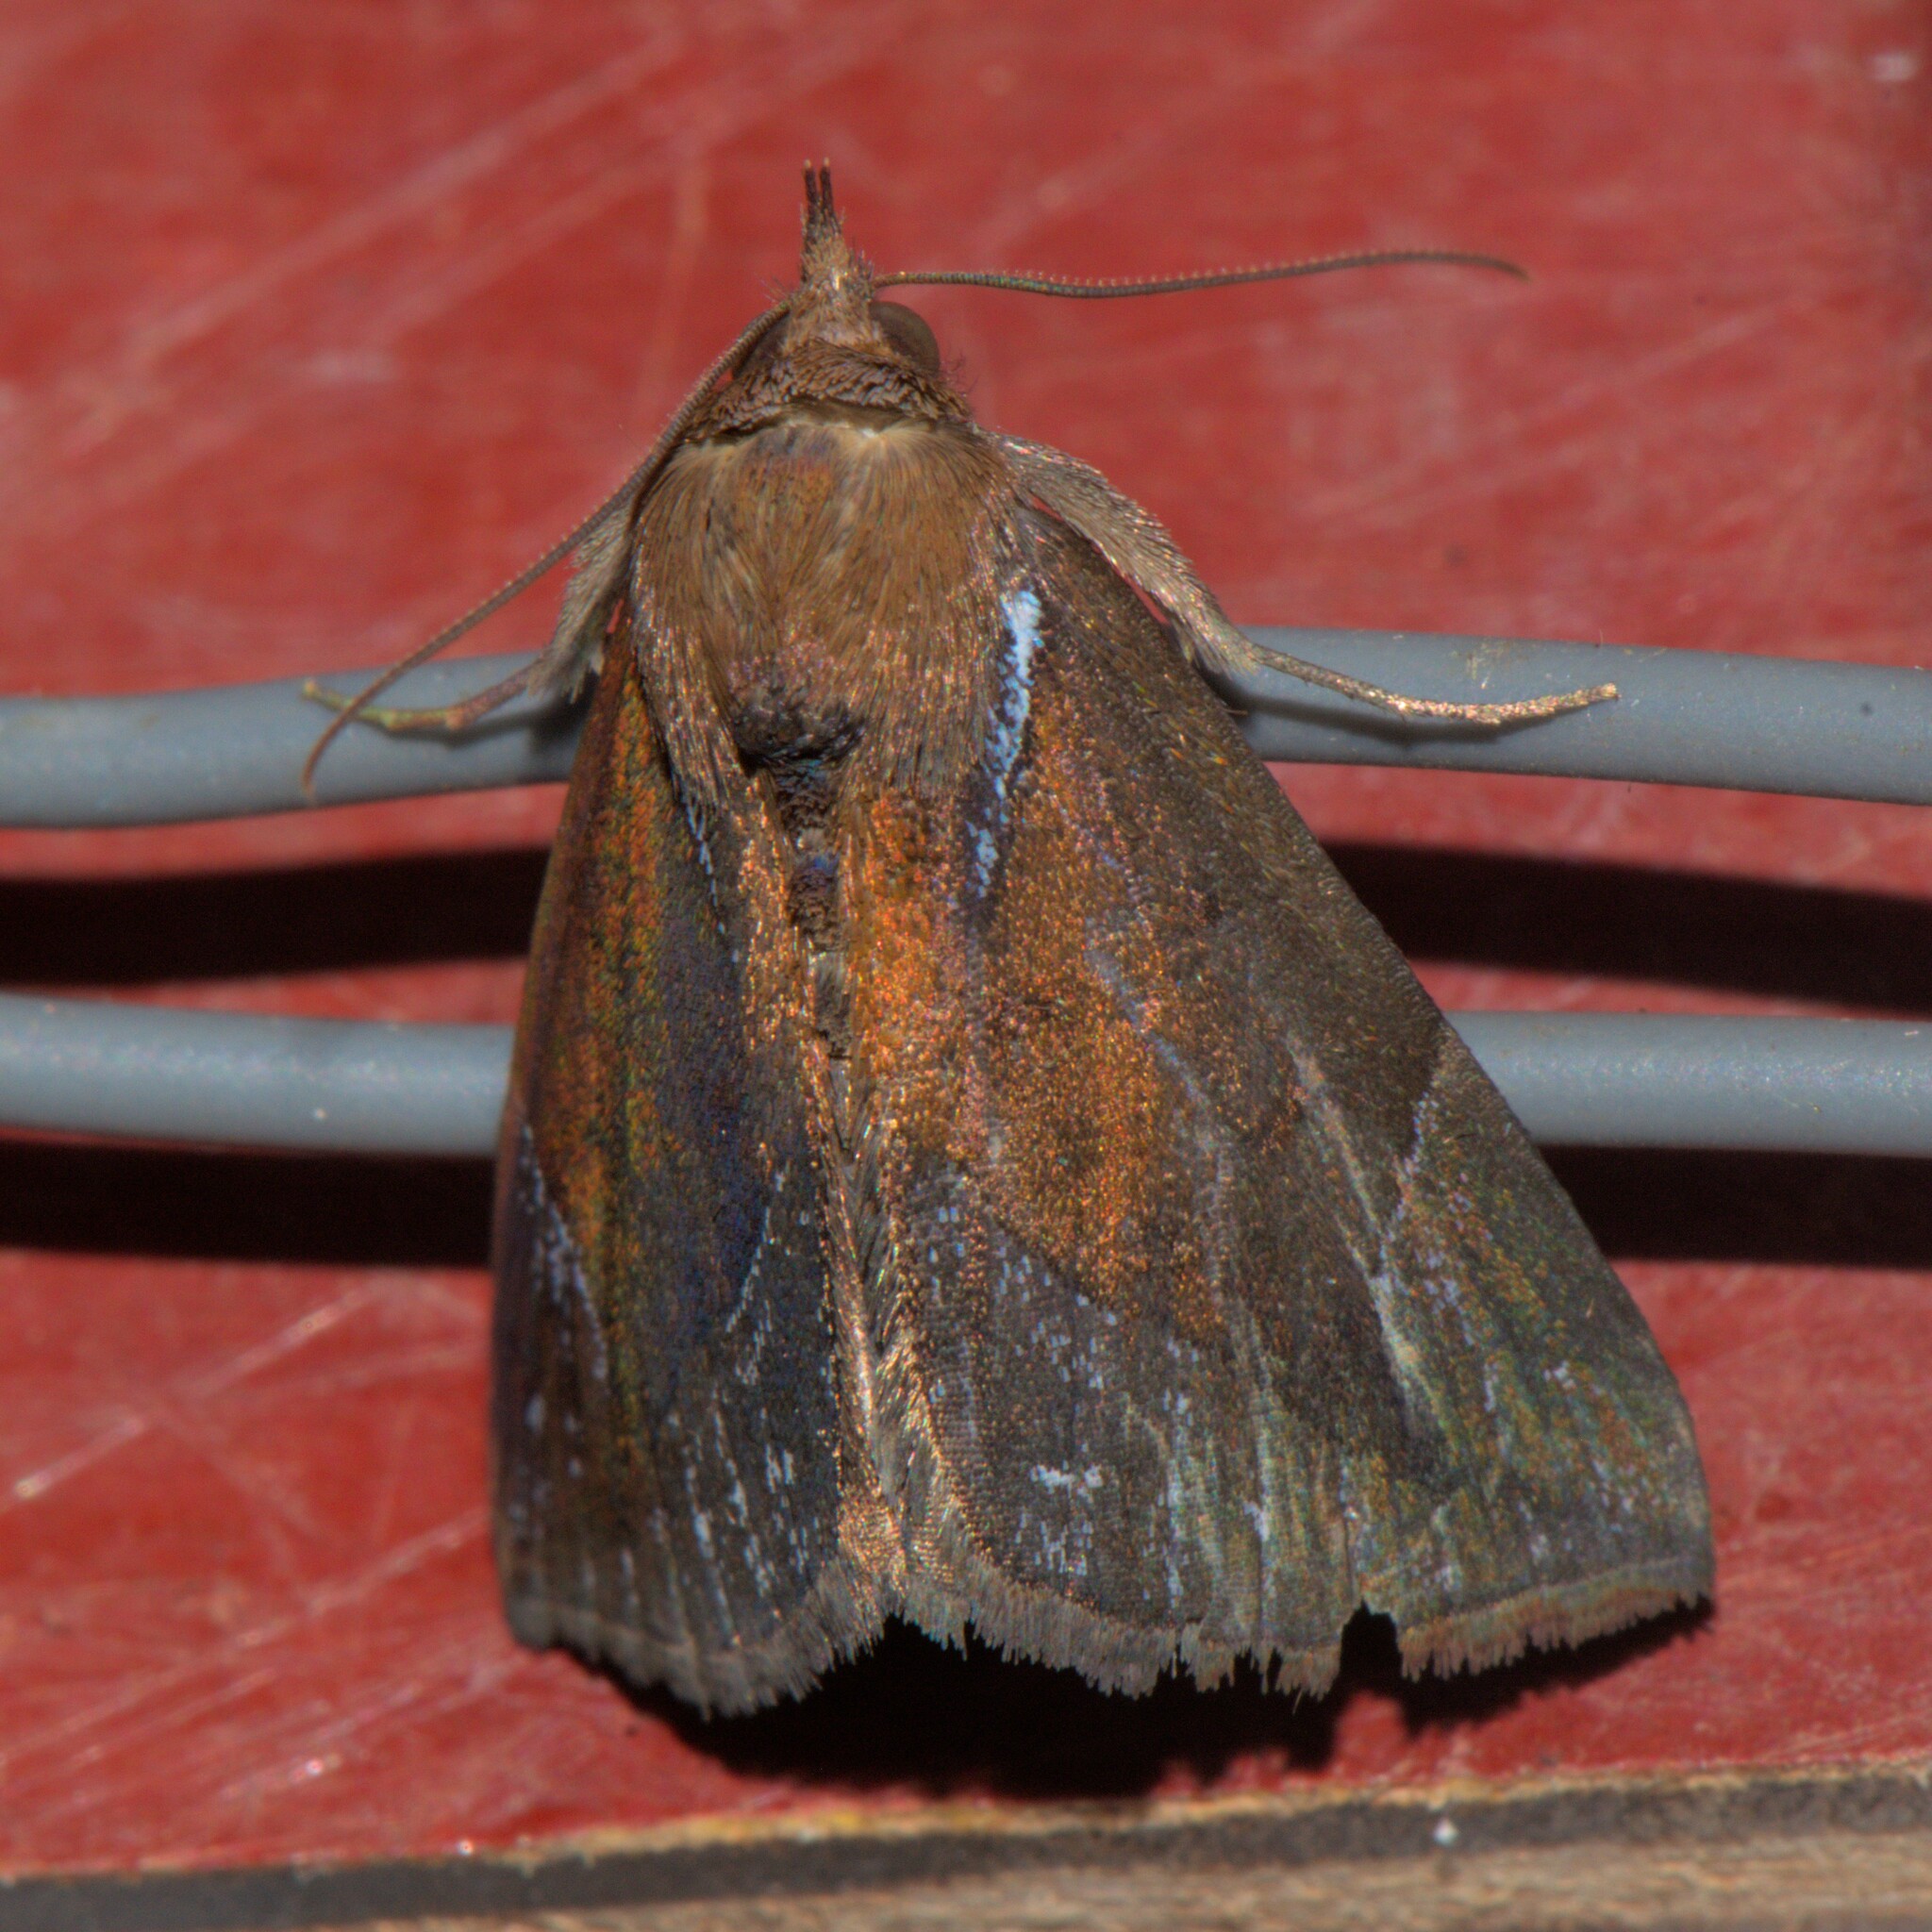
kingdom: Animalia
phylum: Arthropoda
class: Insecta
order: Lepidoptera
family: Erebidae
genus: Hypena
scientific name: Hypena rhombalis
